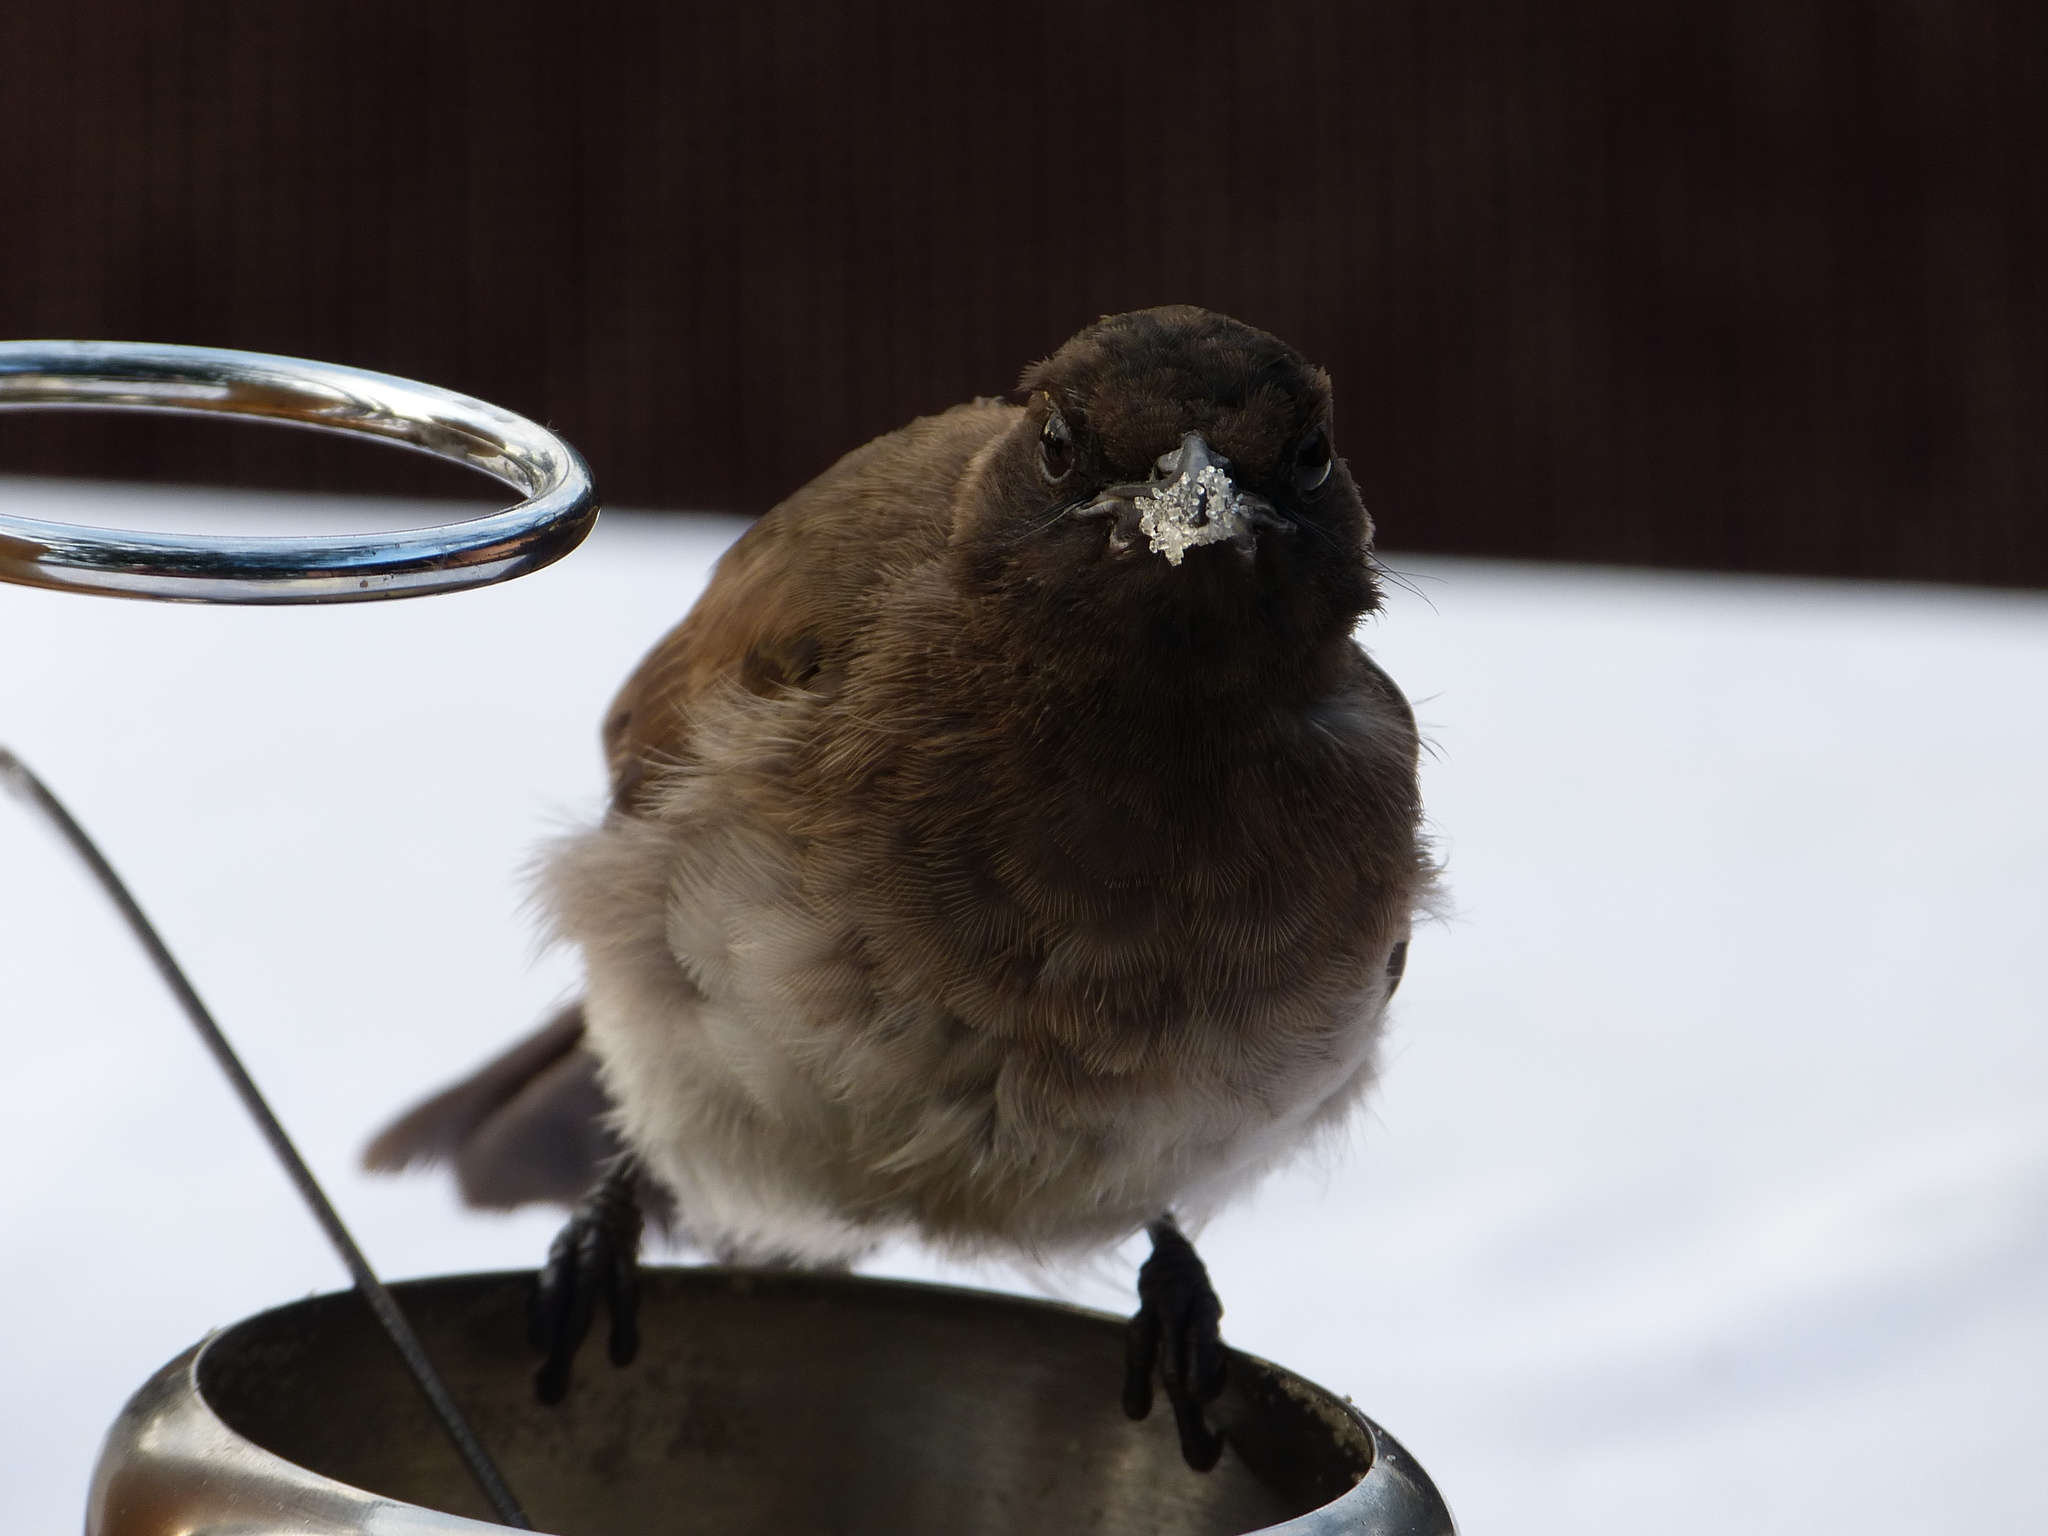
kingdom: Animalia
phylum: Chordata
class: Aves
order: Passeriformes
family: Pycnonotidae
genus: Pycnonotus
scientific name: Pycnonotus barbatus
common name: Common bulbul
